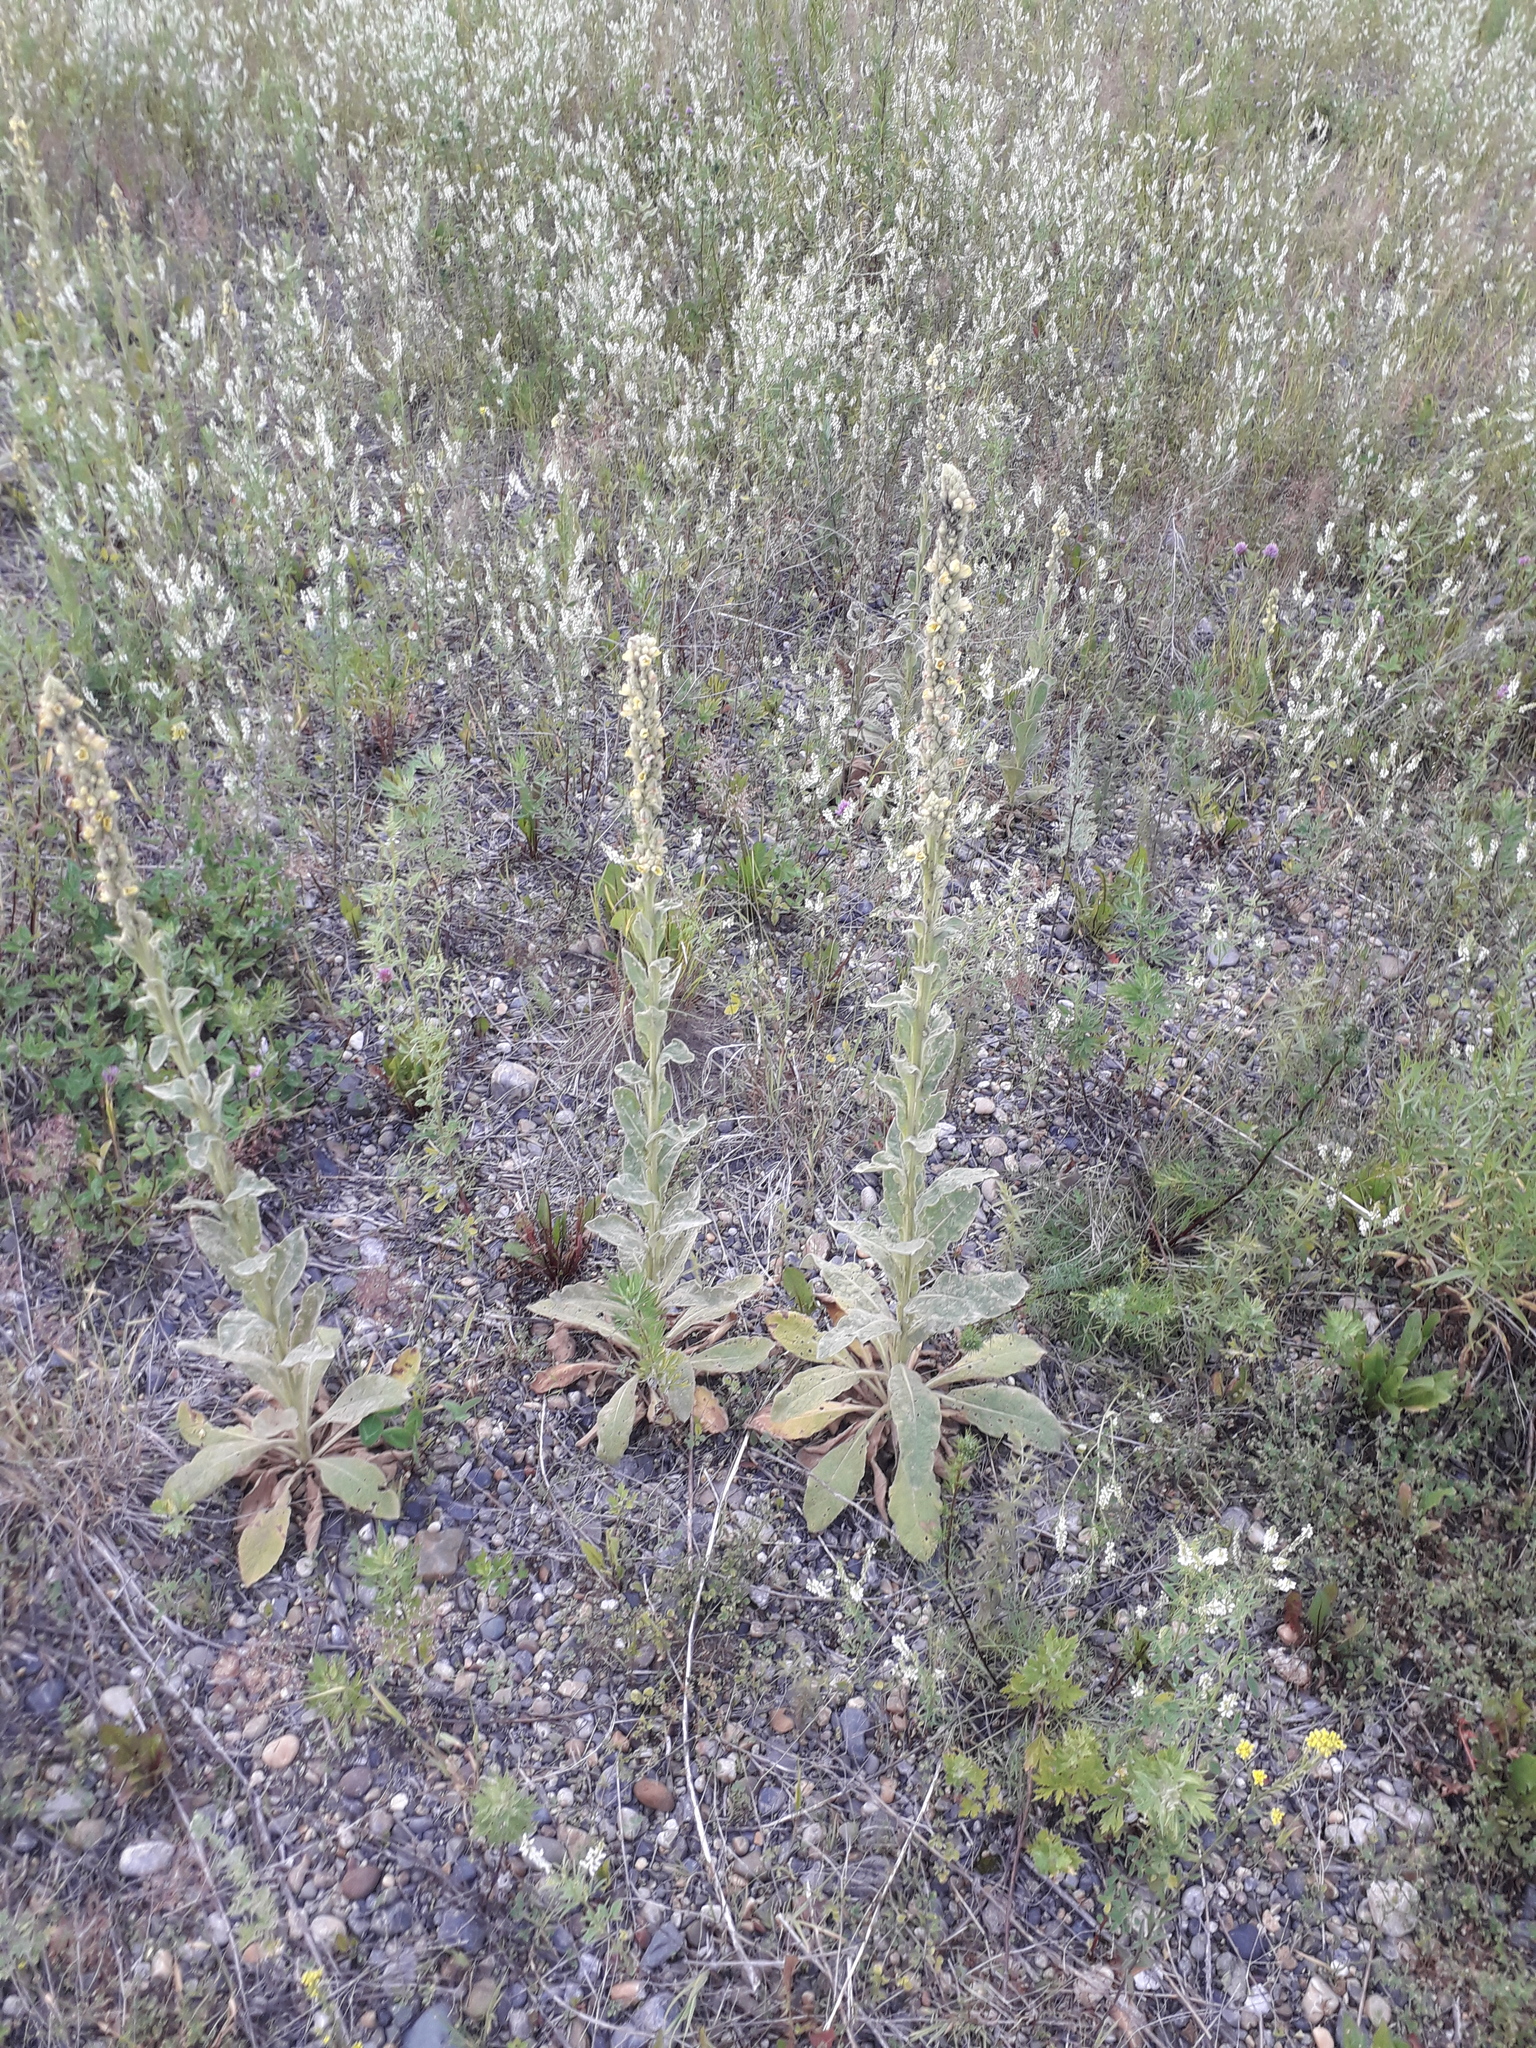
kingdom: Plantae
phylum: Tracheophyta
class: Magnoliopsida
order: Lamiales
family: Scrophulariaceae
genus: Verbascum
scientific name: Verbascum thapsus
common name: Common mullein
